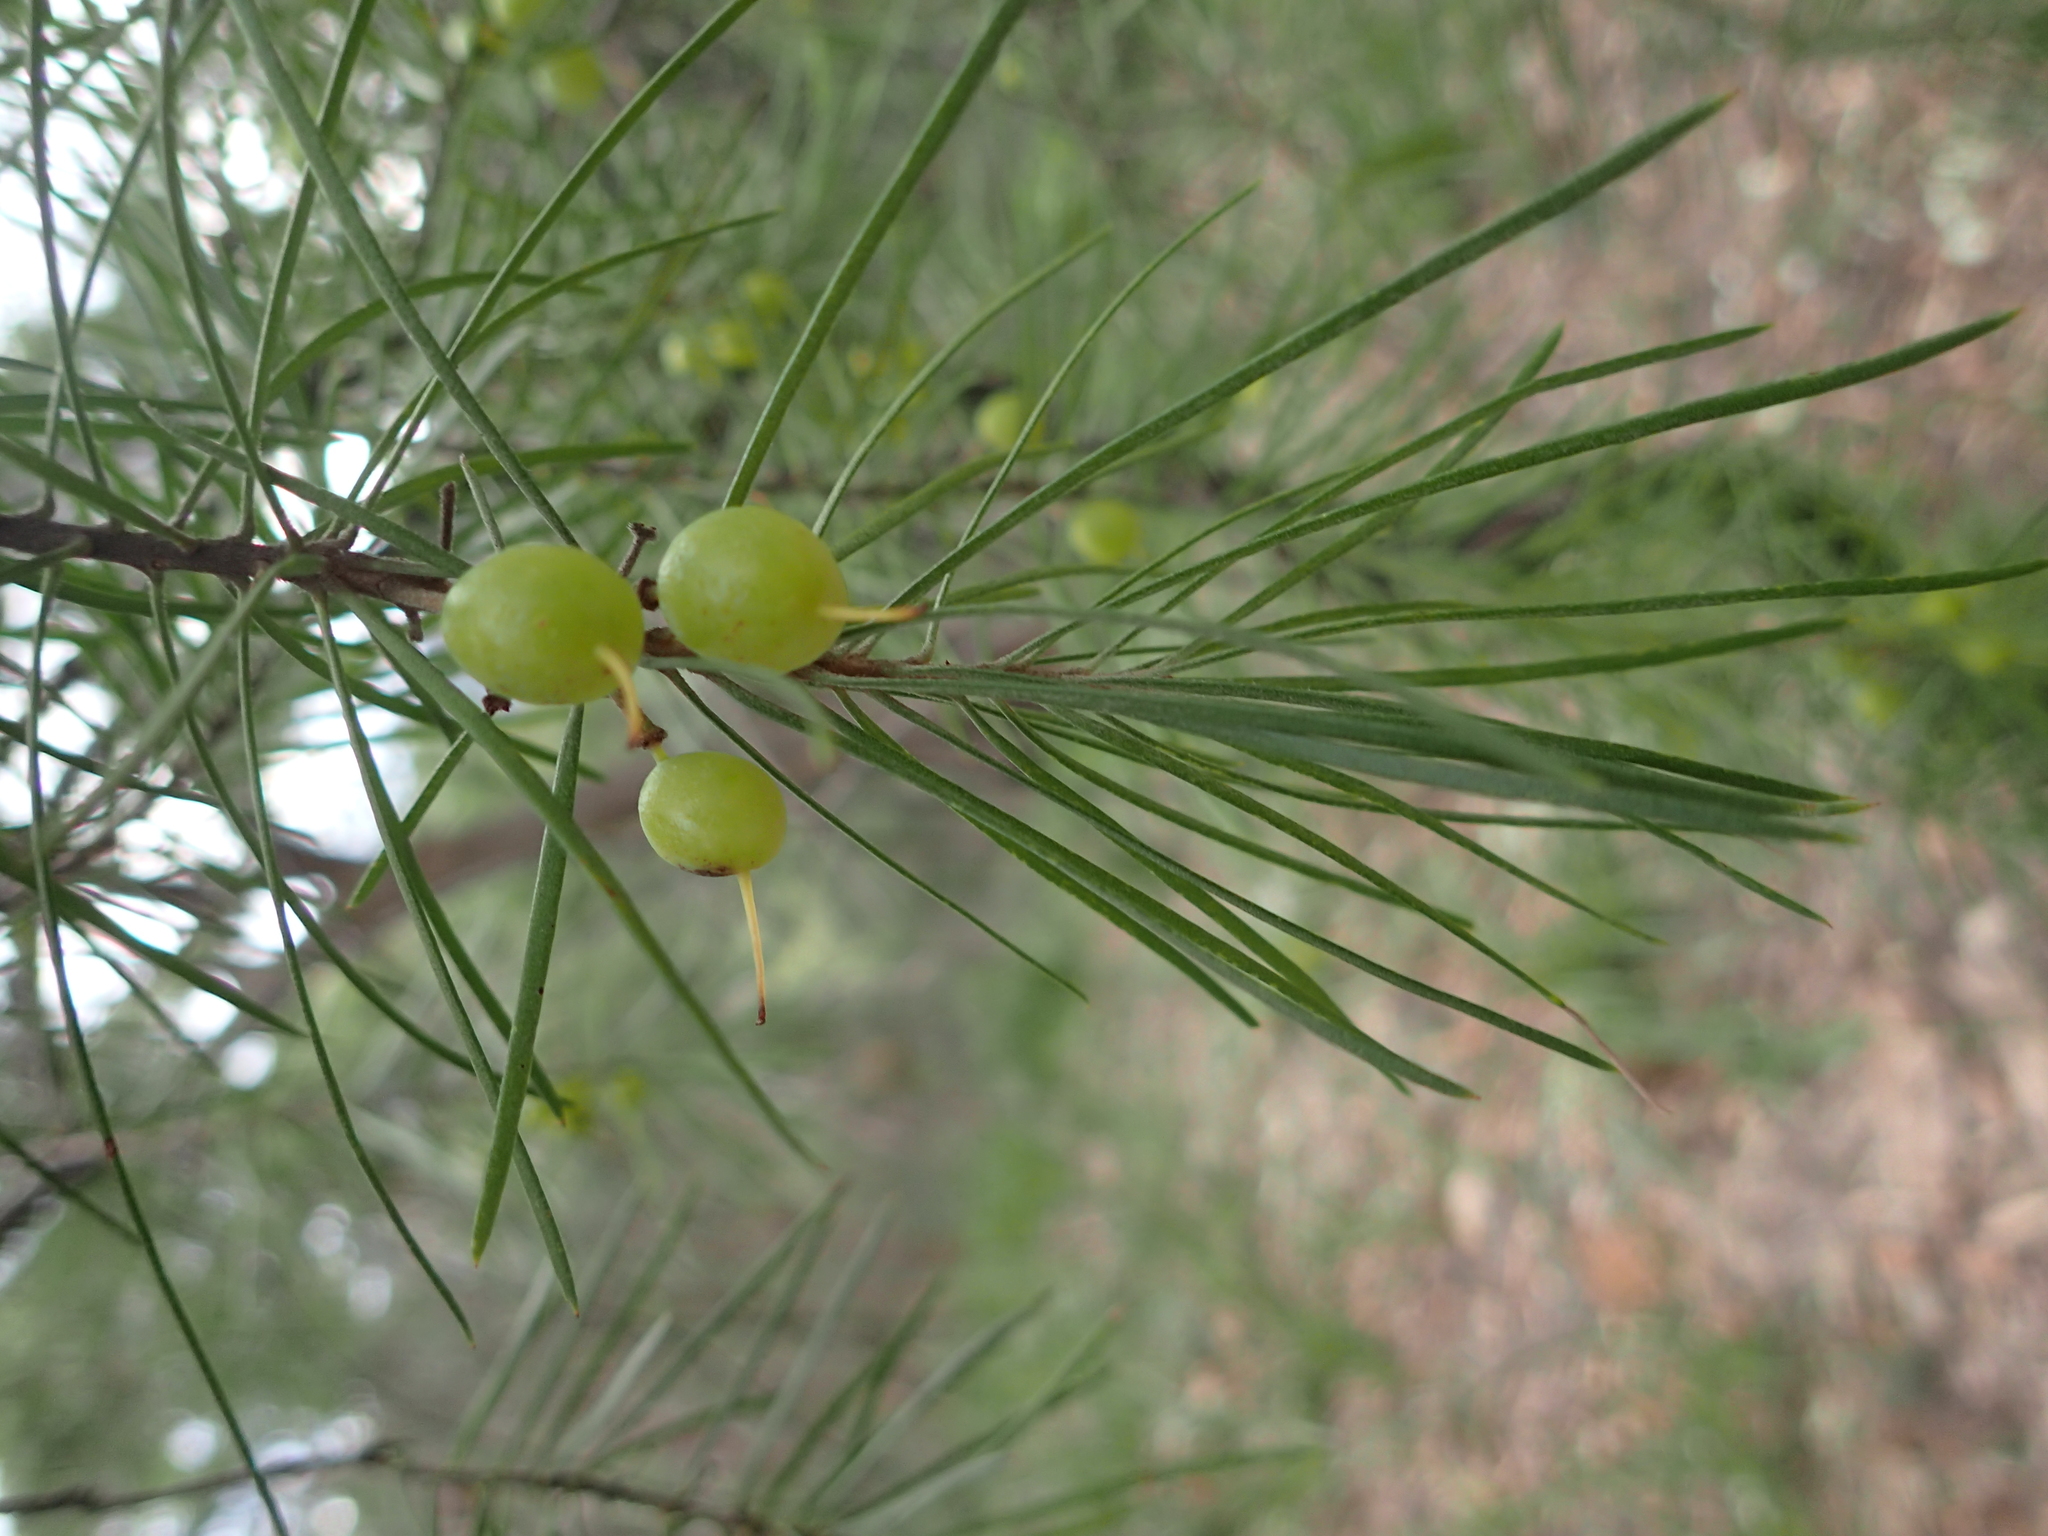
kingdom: Plantae
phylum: Tracheophyta
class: Magnoliopsida
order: Proteales
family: Proteaceae
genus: Persoonia
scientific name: Persoonia linearis
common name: Narrow-leaf geebung
